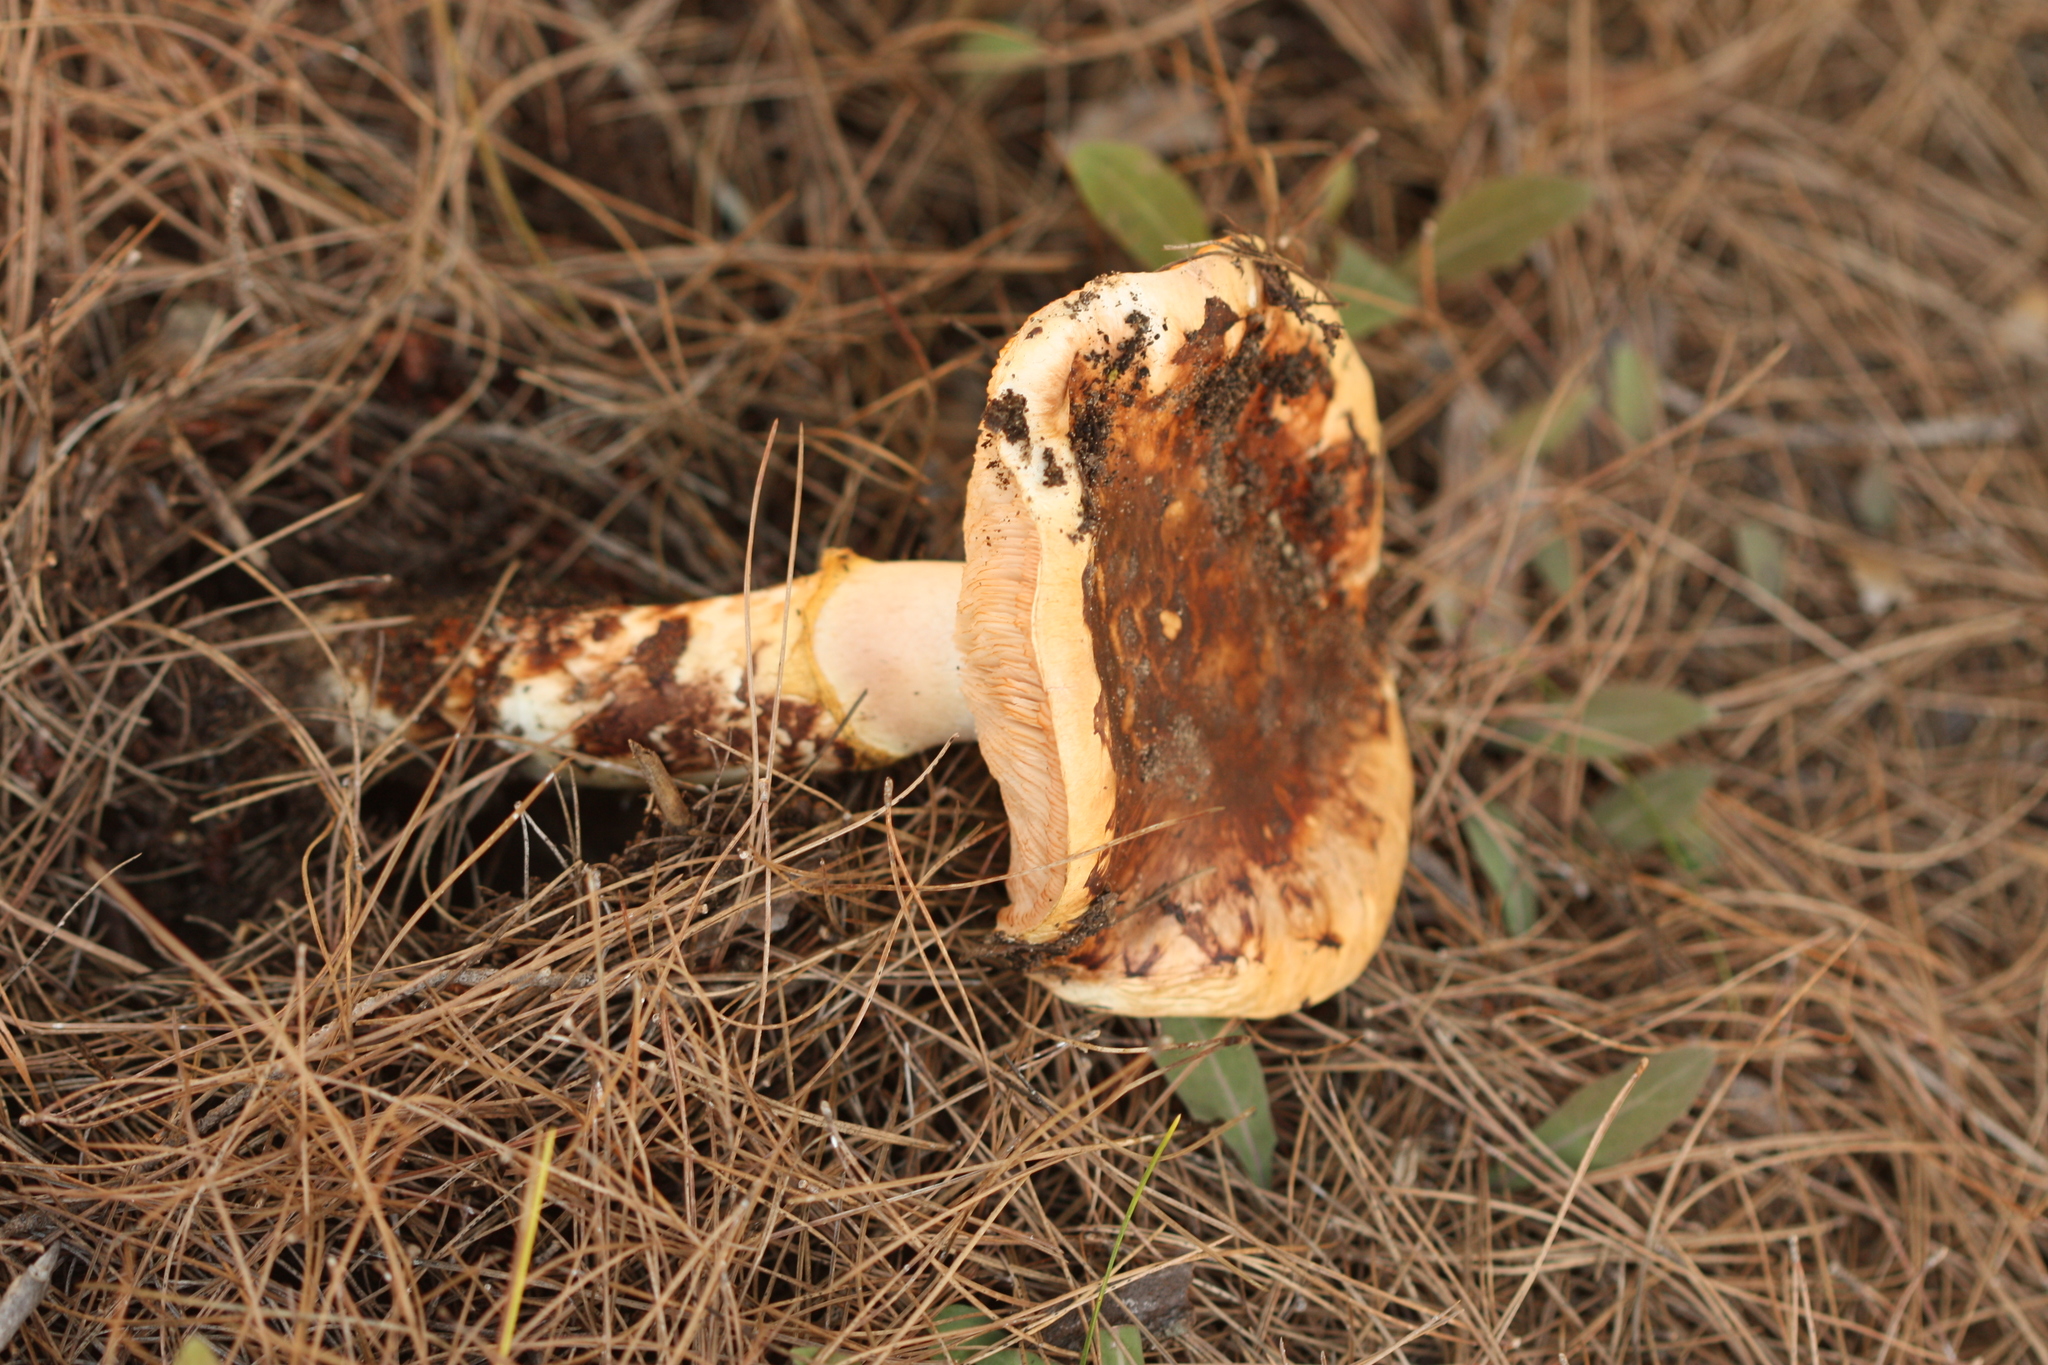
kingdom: Fungi
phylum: Basidiomycota
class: Agaricomycetes
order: Agaricales
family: Tricholomataceae
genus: Tricholoma
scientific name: Tricholoma caligatum
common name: True booted knight
